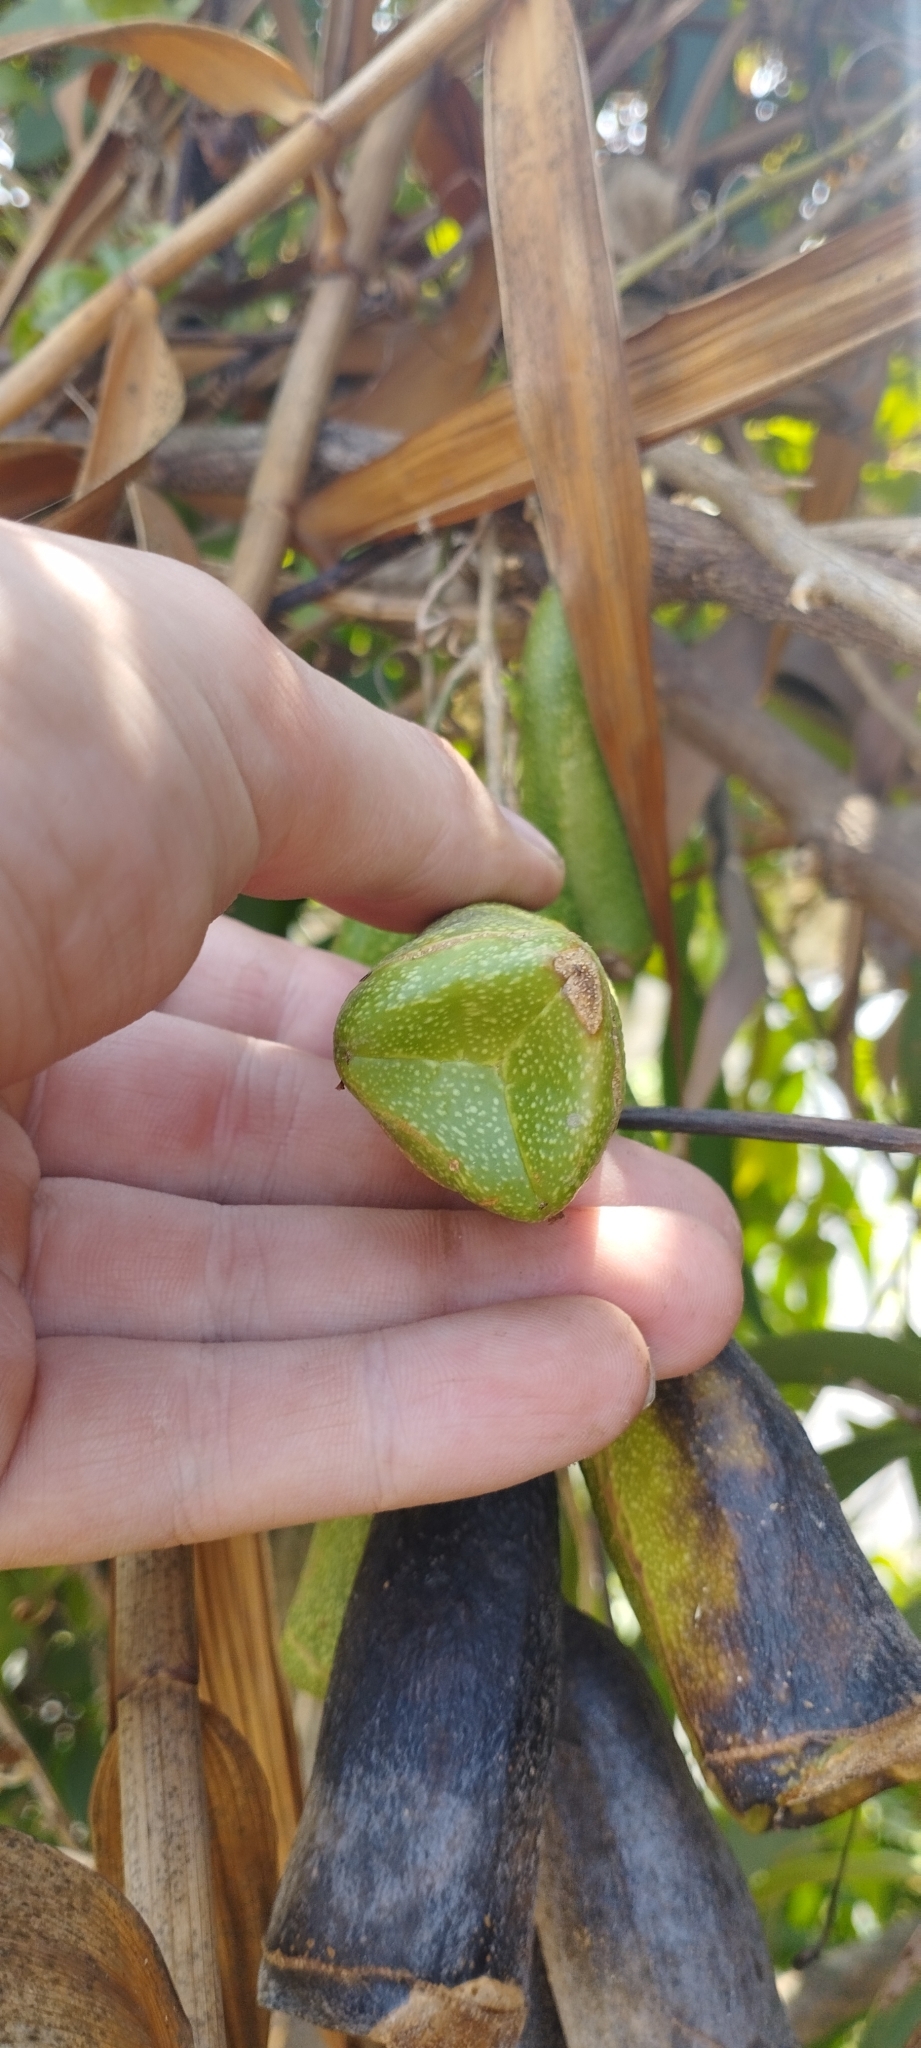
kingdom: Plantae
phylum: Tracheophyta
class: Magnoliopsida
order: Cucurbitales
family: Cucurbitaceae
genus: Zanonia
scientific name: Zanonia indica
